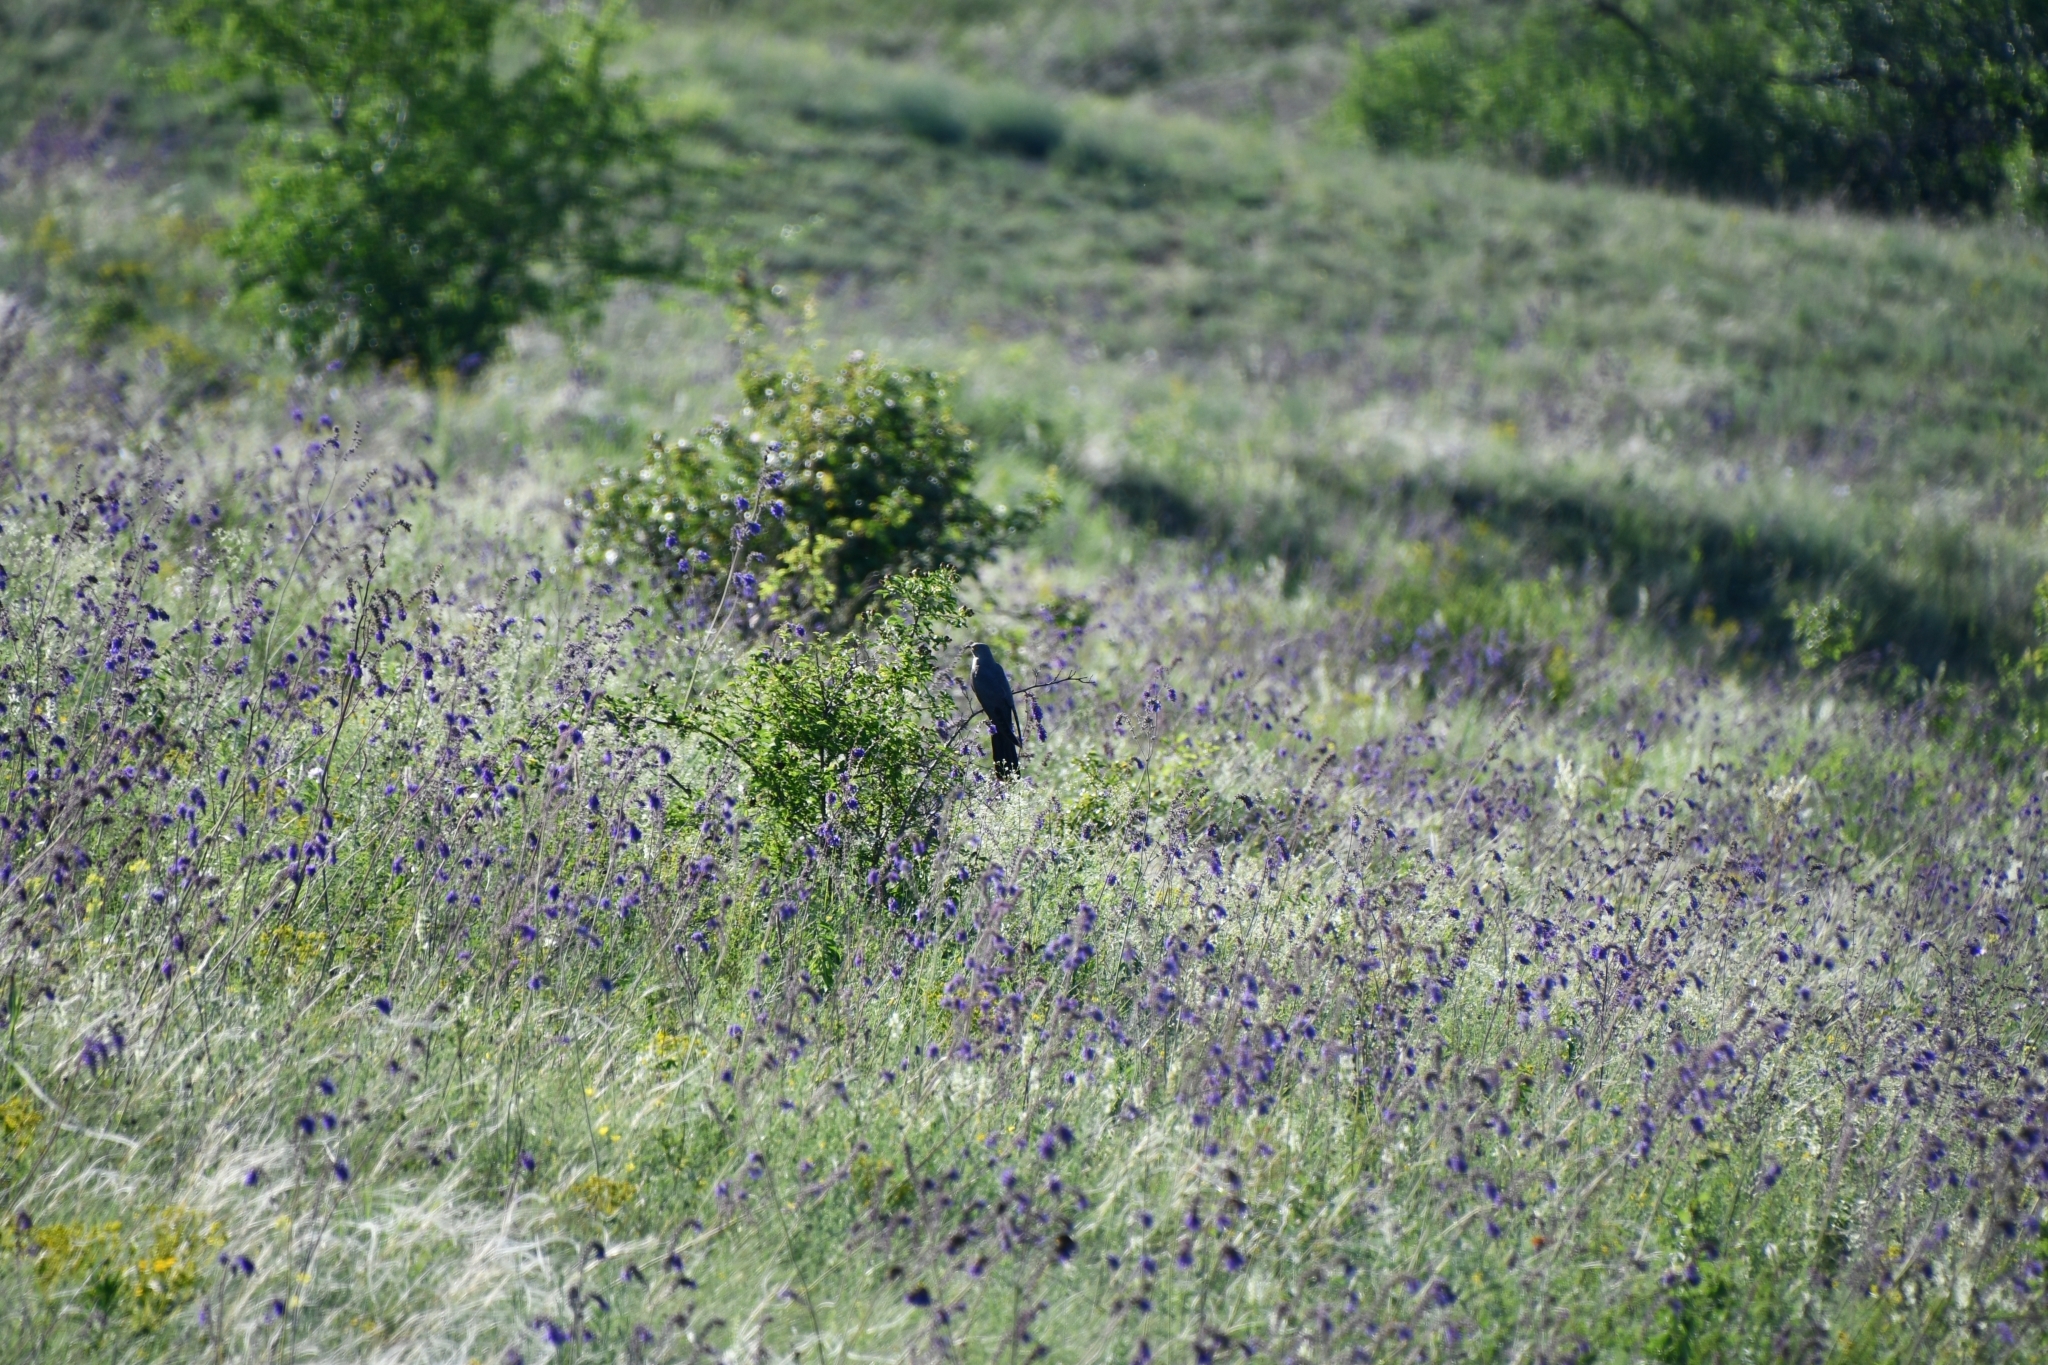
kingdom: Animalia
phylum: Chordata
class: Aves
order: Cuculiformes
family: Cuculidae
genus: Cuculus
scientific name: Cuculus canorus
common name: Common cuckoo
